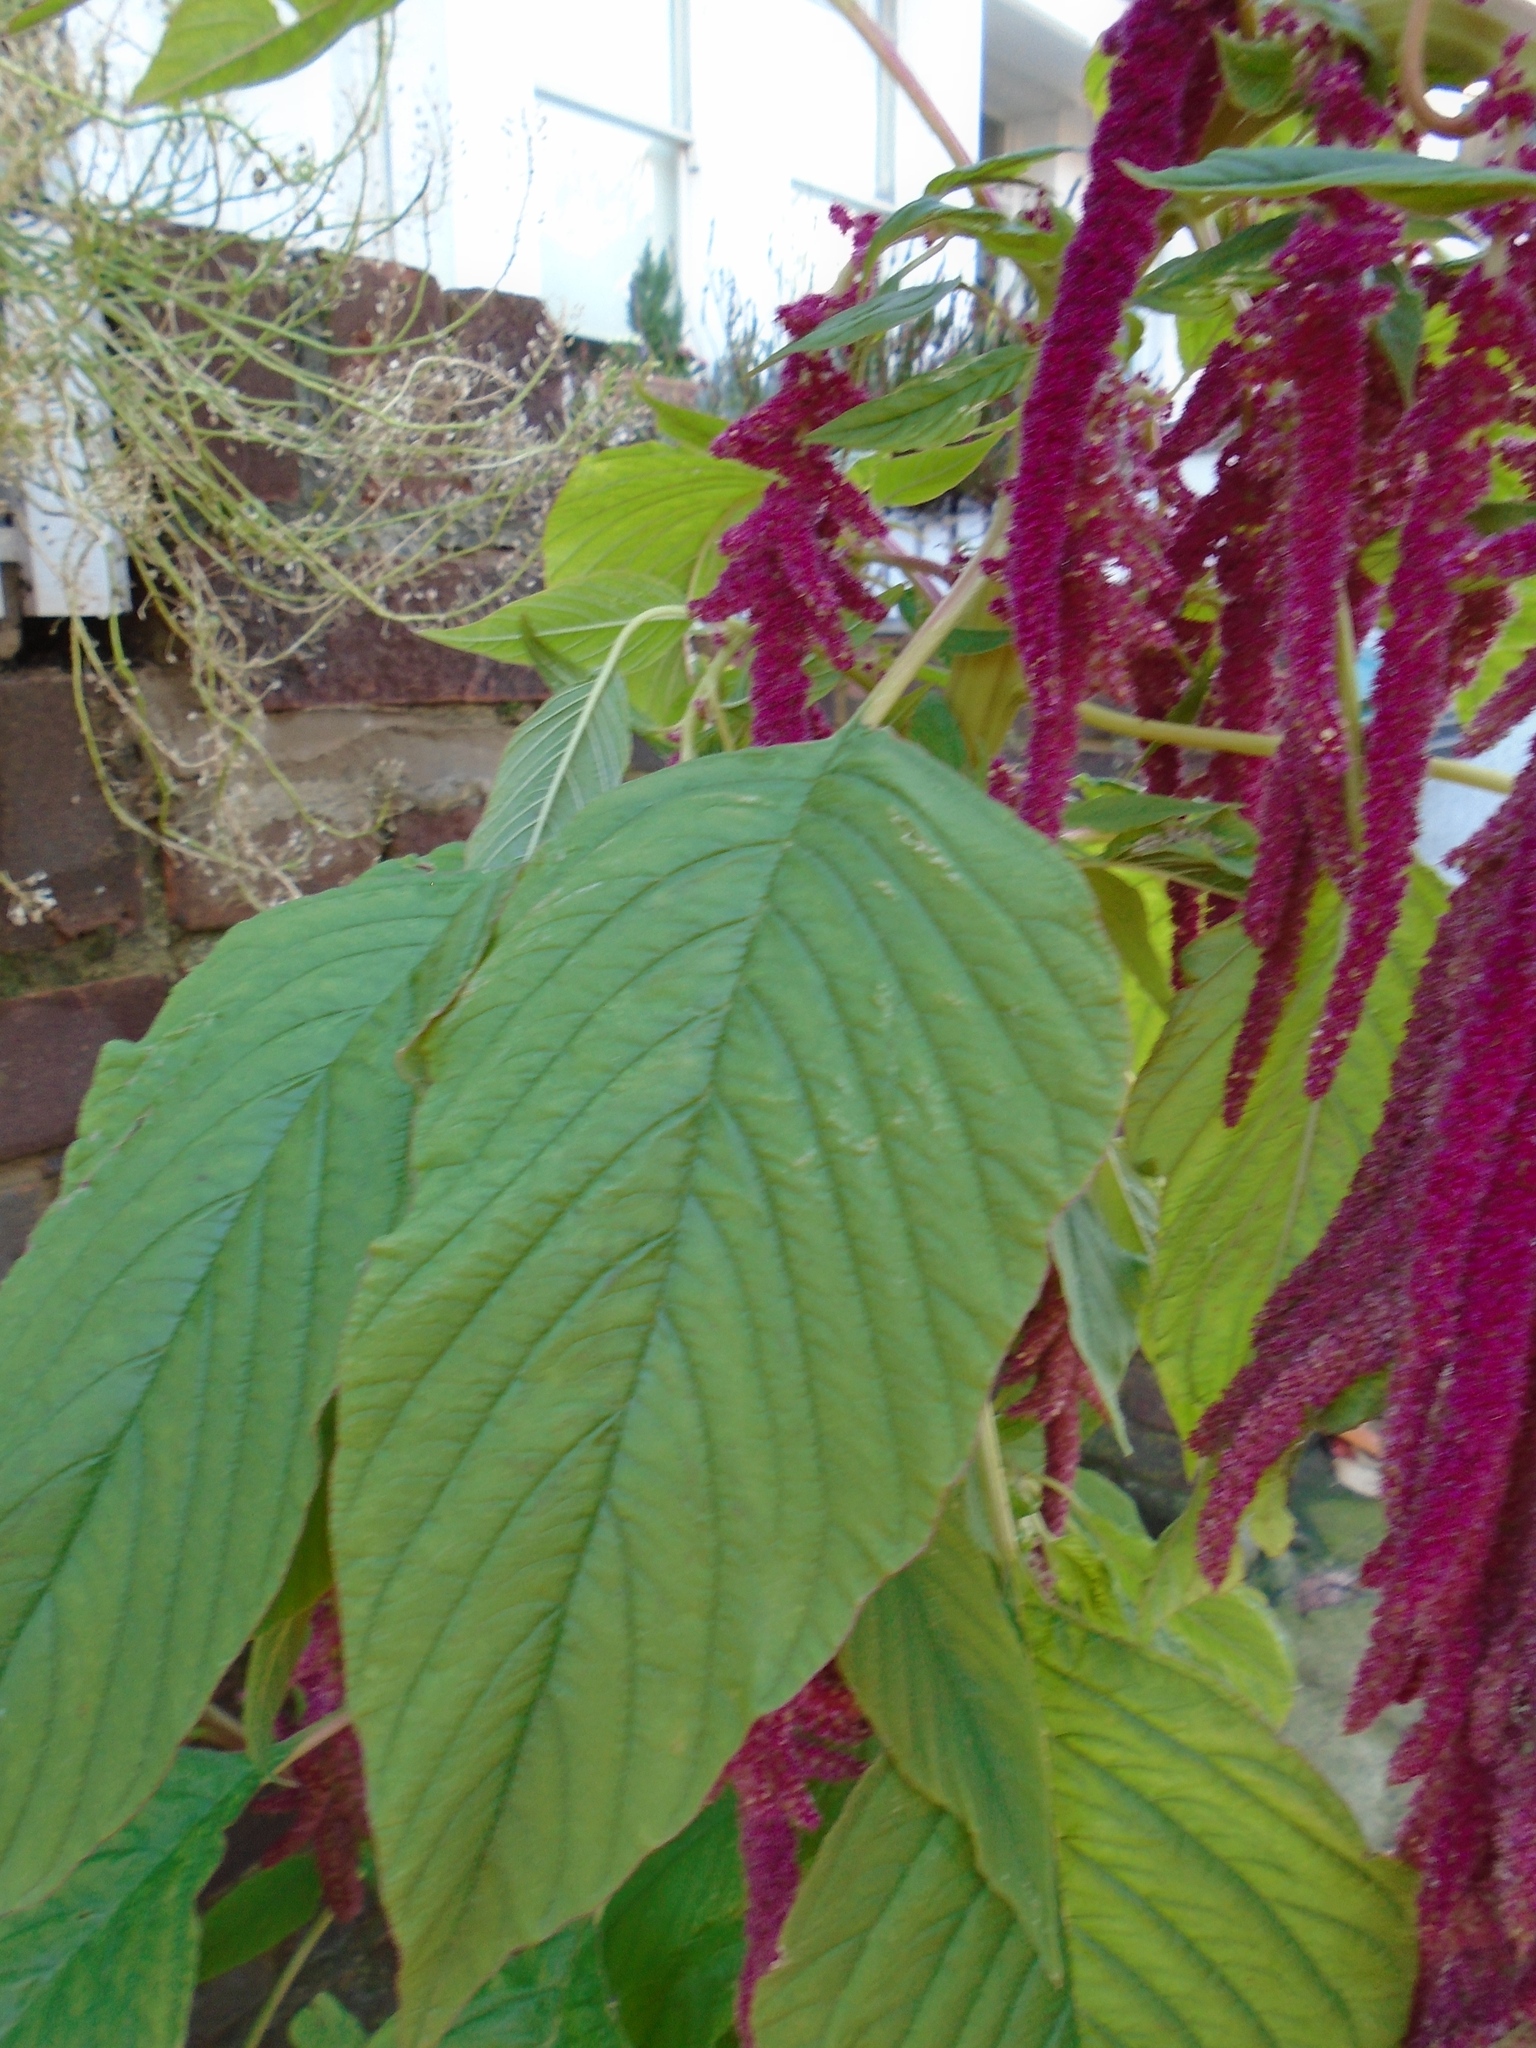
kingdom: Plantae
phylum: Tracheophyta
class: Magnoliopsida
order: Caryophyllales
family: Amaranthaceae
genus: Amaranthus
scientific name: Amaranthus caudatus
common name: Love-lies-bleeding
